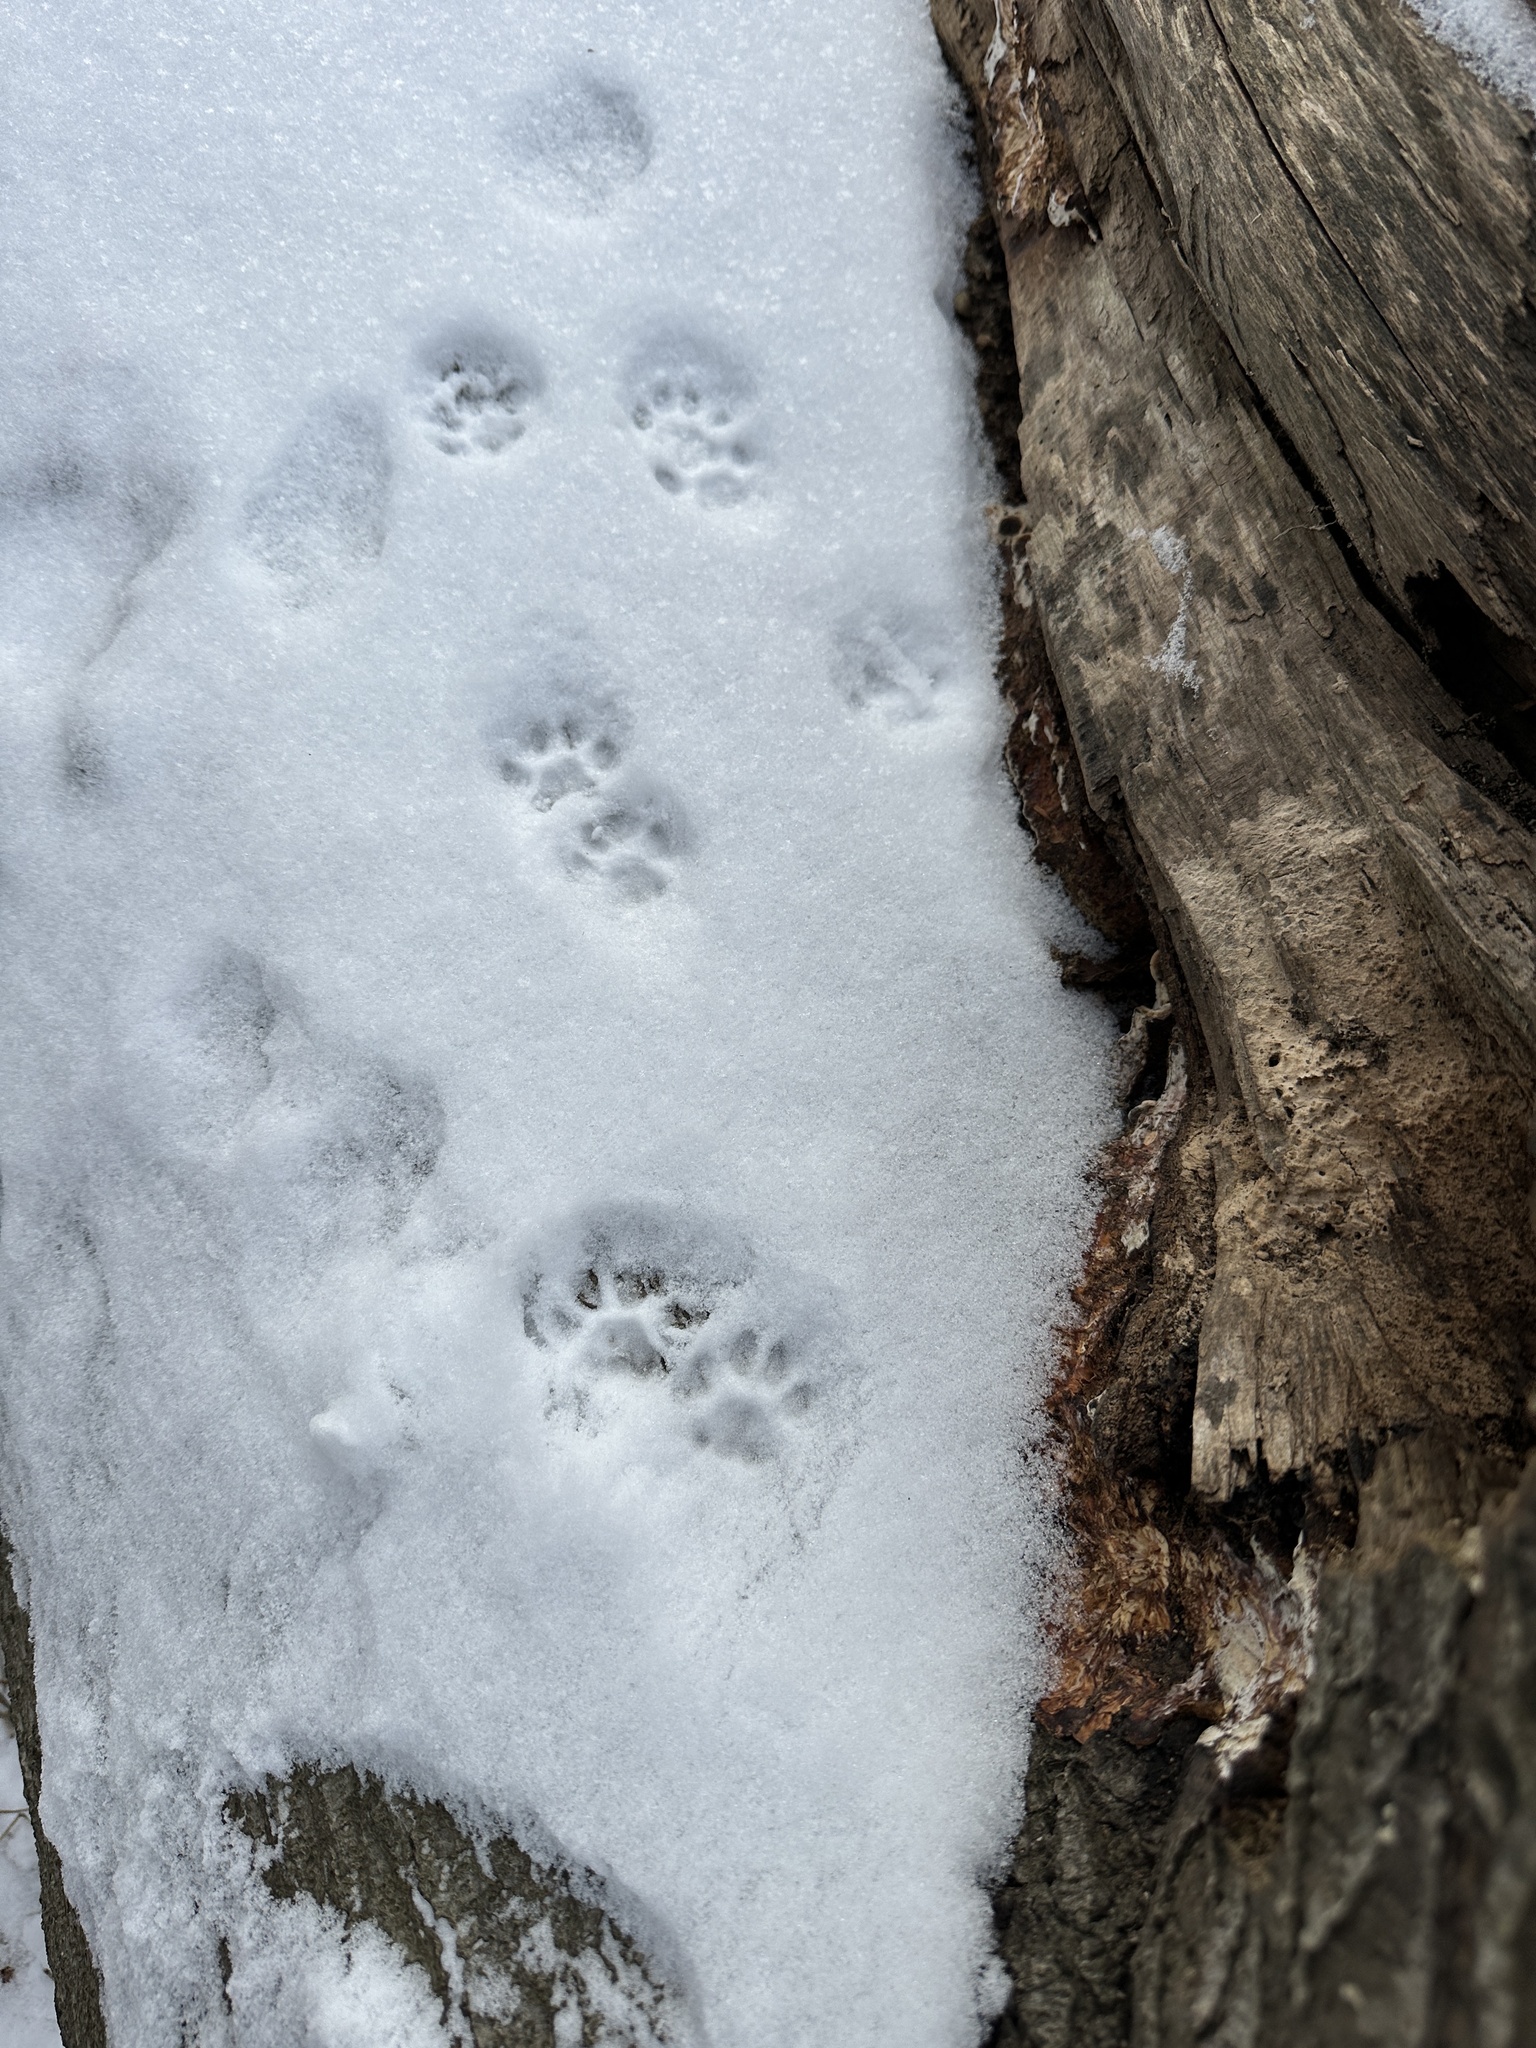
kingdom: Animalia
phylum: Chordata
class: Mammalia
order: Carnivora
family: Felidae
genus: Felis
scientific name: Felis catus
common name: Domestic cat
